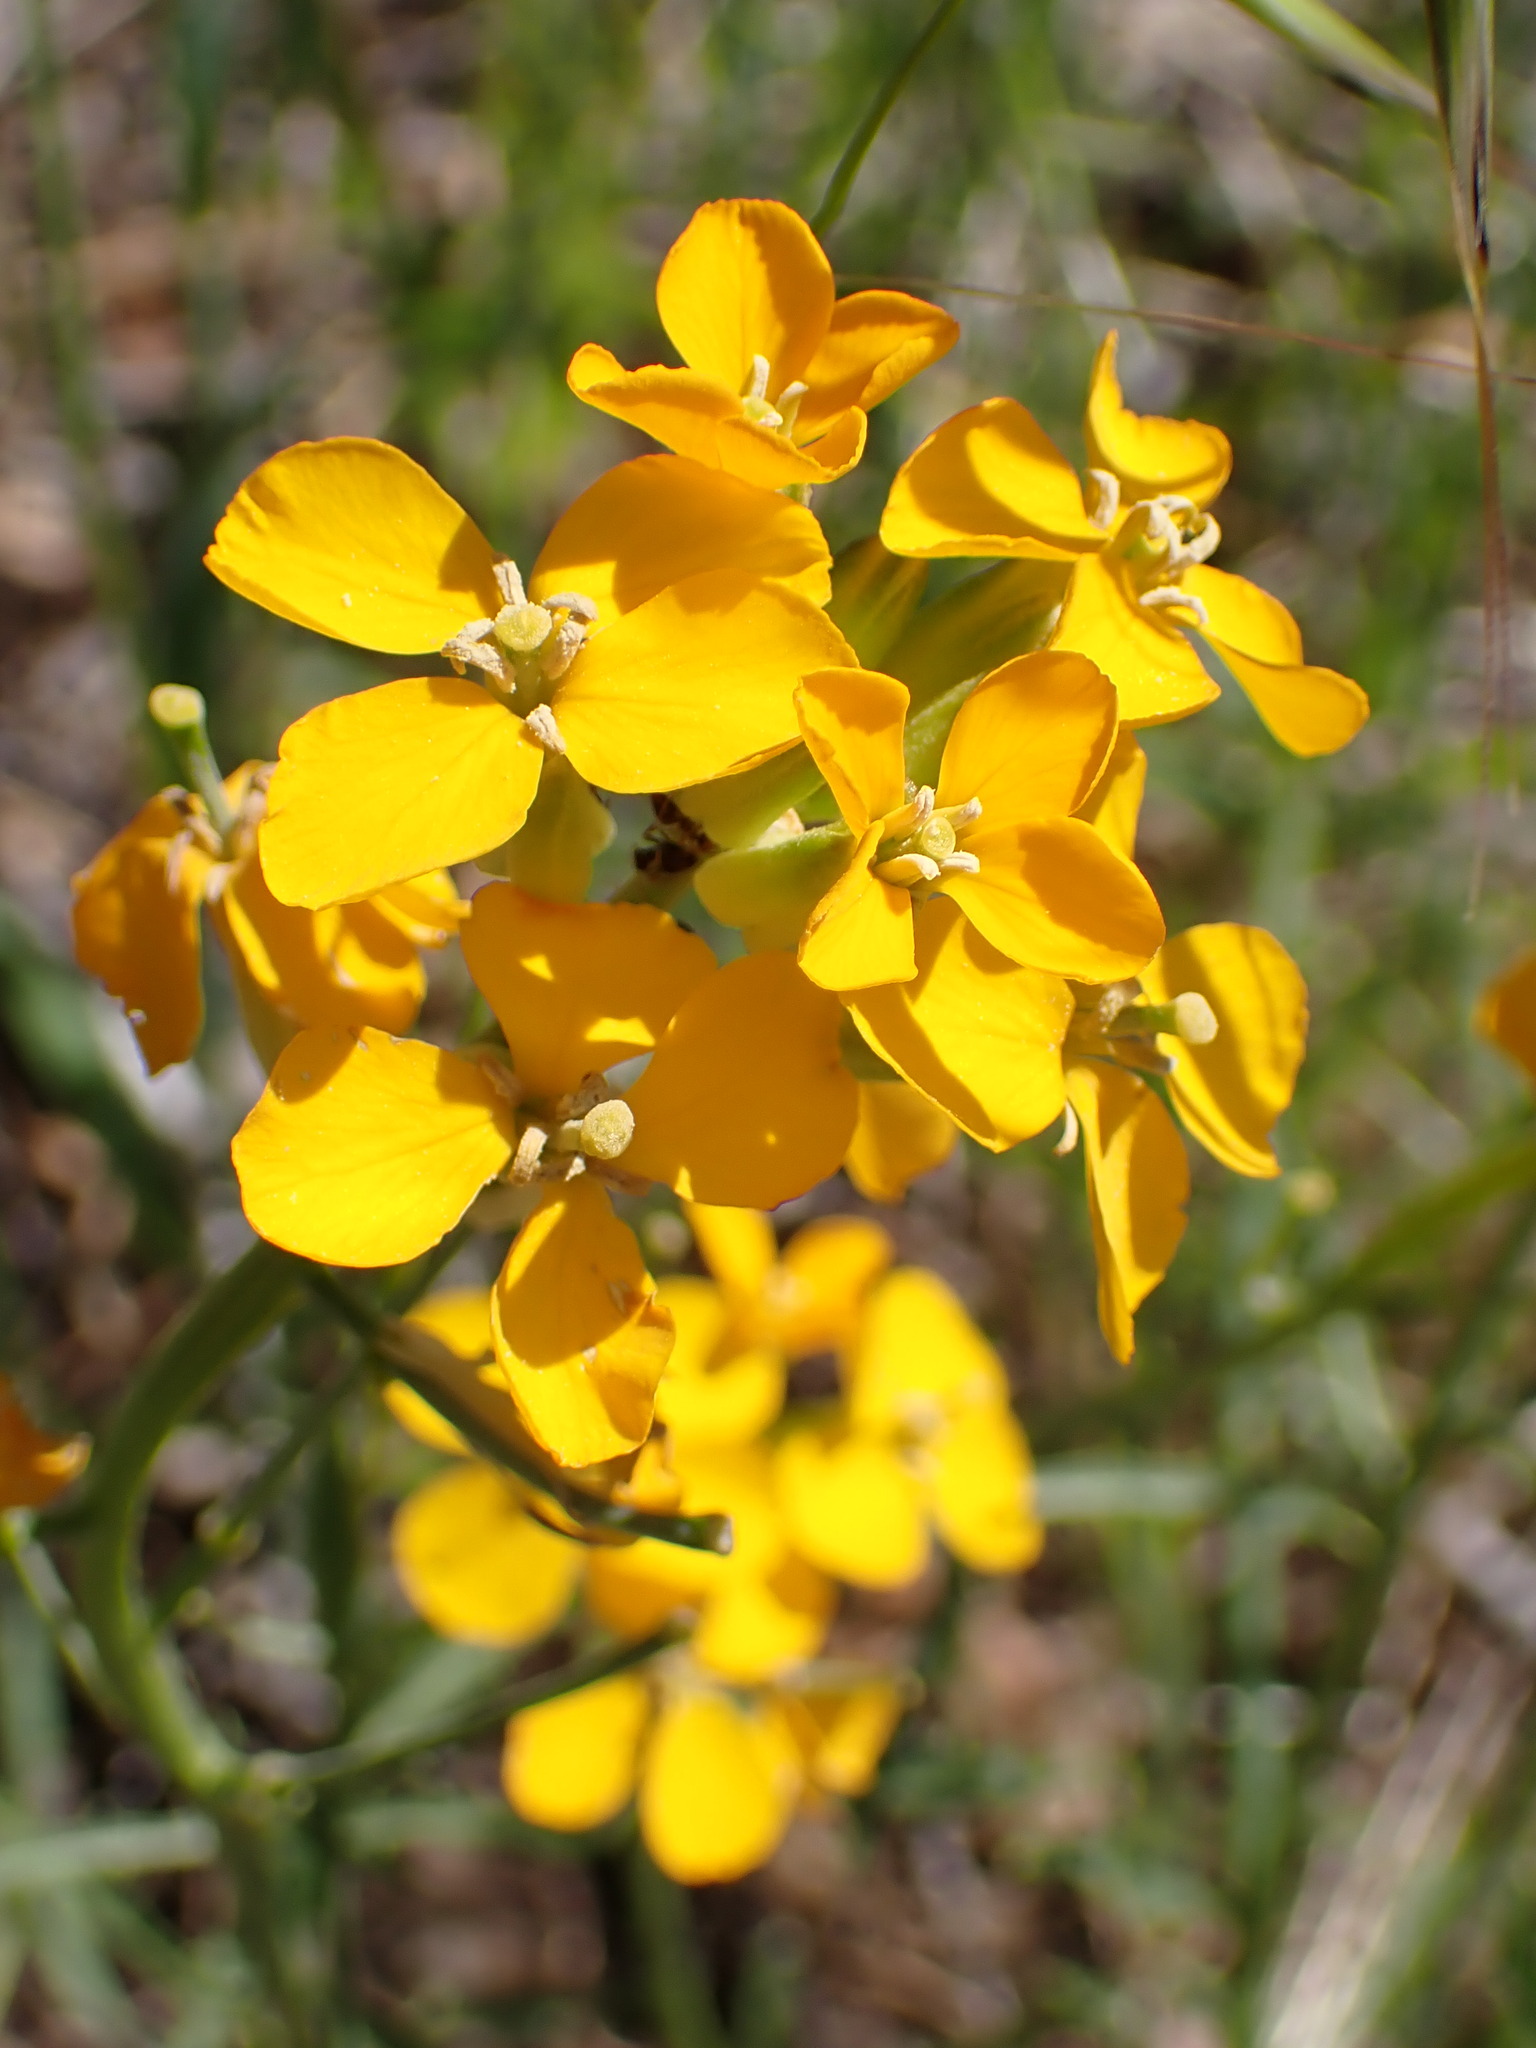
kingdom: Plantae
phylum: Tracheophyta
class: Magnoliopsida
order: Brassicales
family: Brassicaceae
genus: Erysimum
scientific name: Erysimum capitatum
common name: Western wallflower
